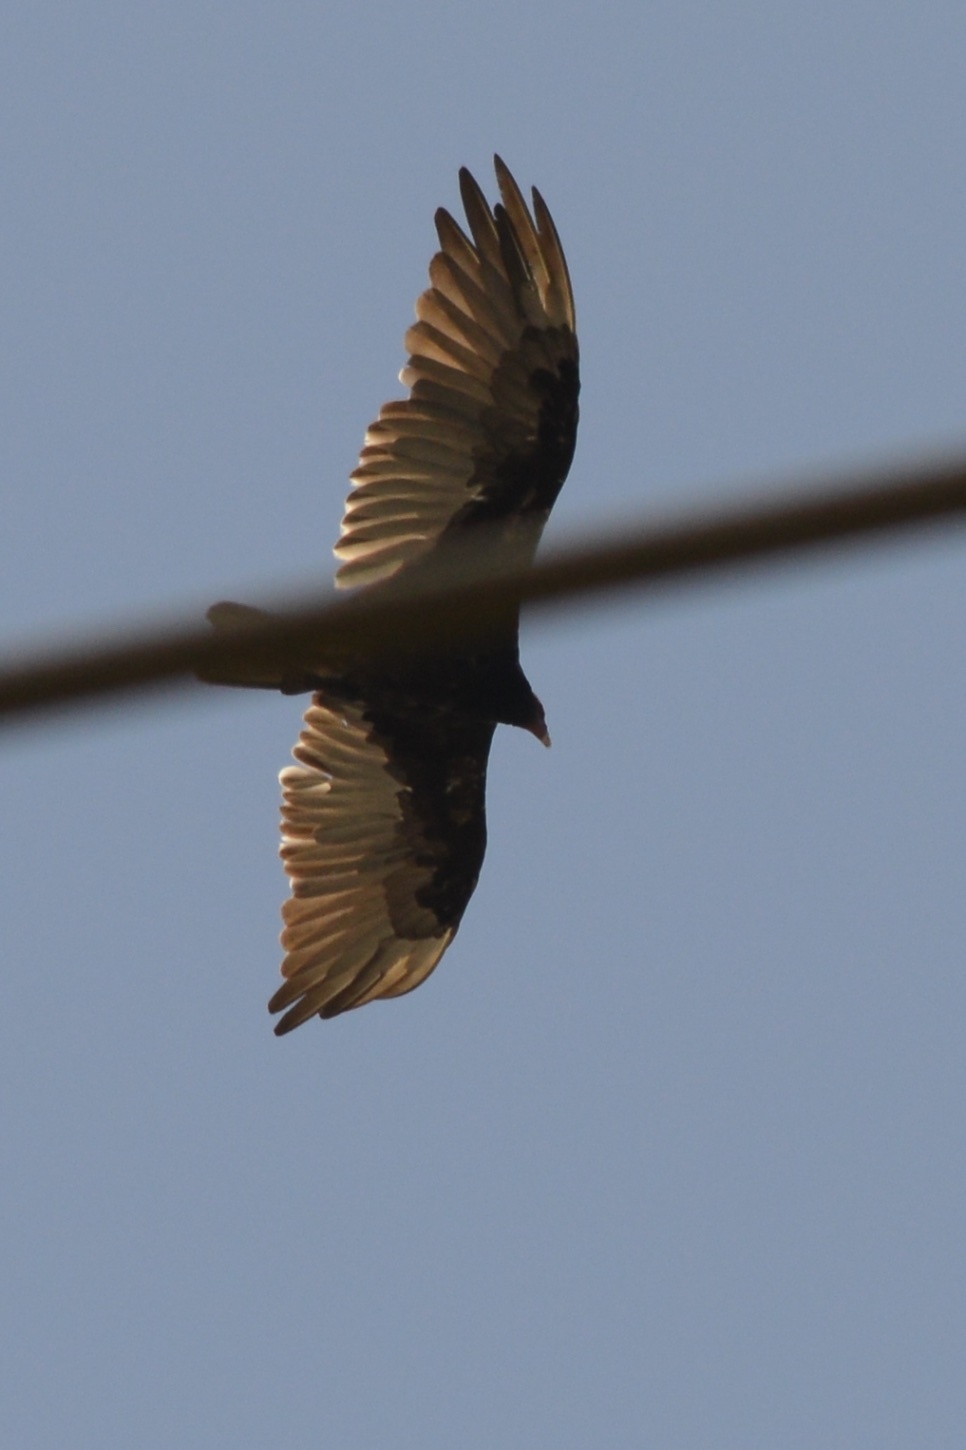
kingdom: Animalia
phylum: Chordata
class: Aves
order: Accipitriformes
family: Cathartidae
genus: Cathartes
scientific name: Cathartes aura
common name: Turkey vulture
